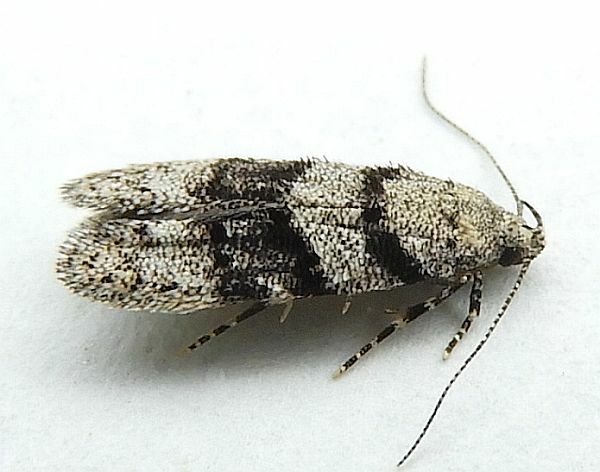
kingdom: Plantae
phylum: Tracheophyta
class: Pinopsida
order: Pinales
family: Pinaceae
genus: Arcutelphusa
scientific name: Arcutelphusa talladega
